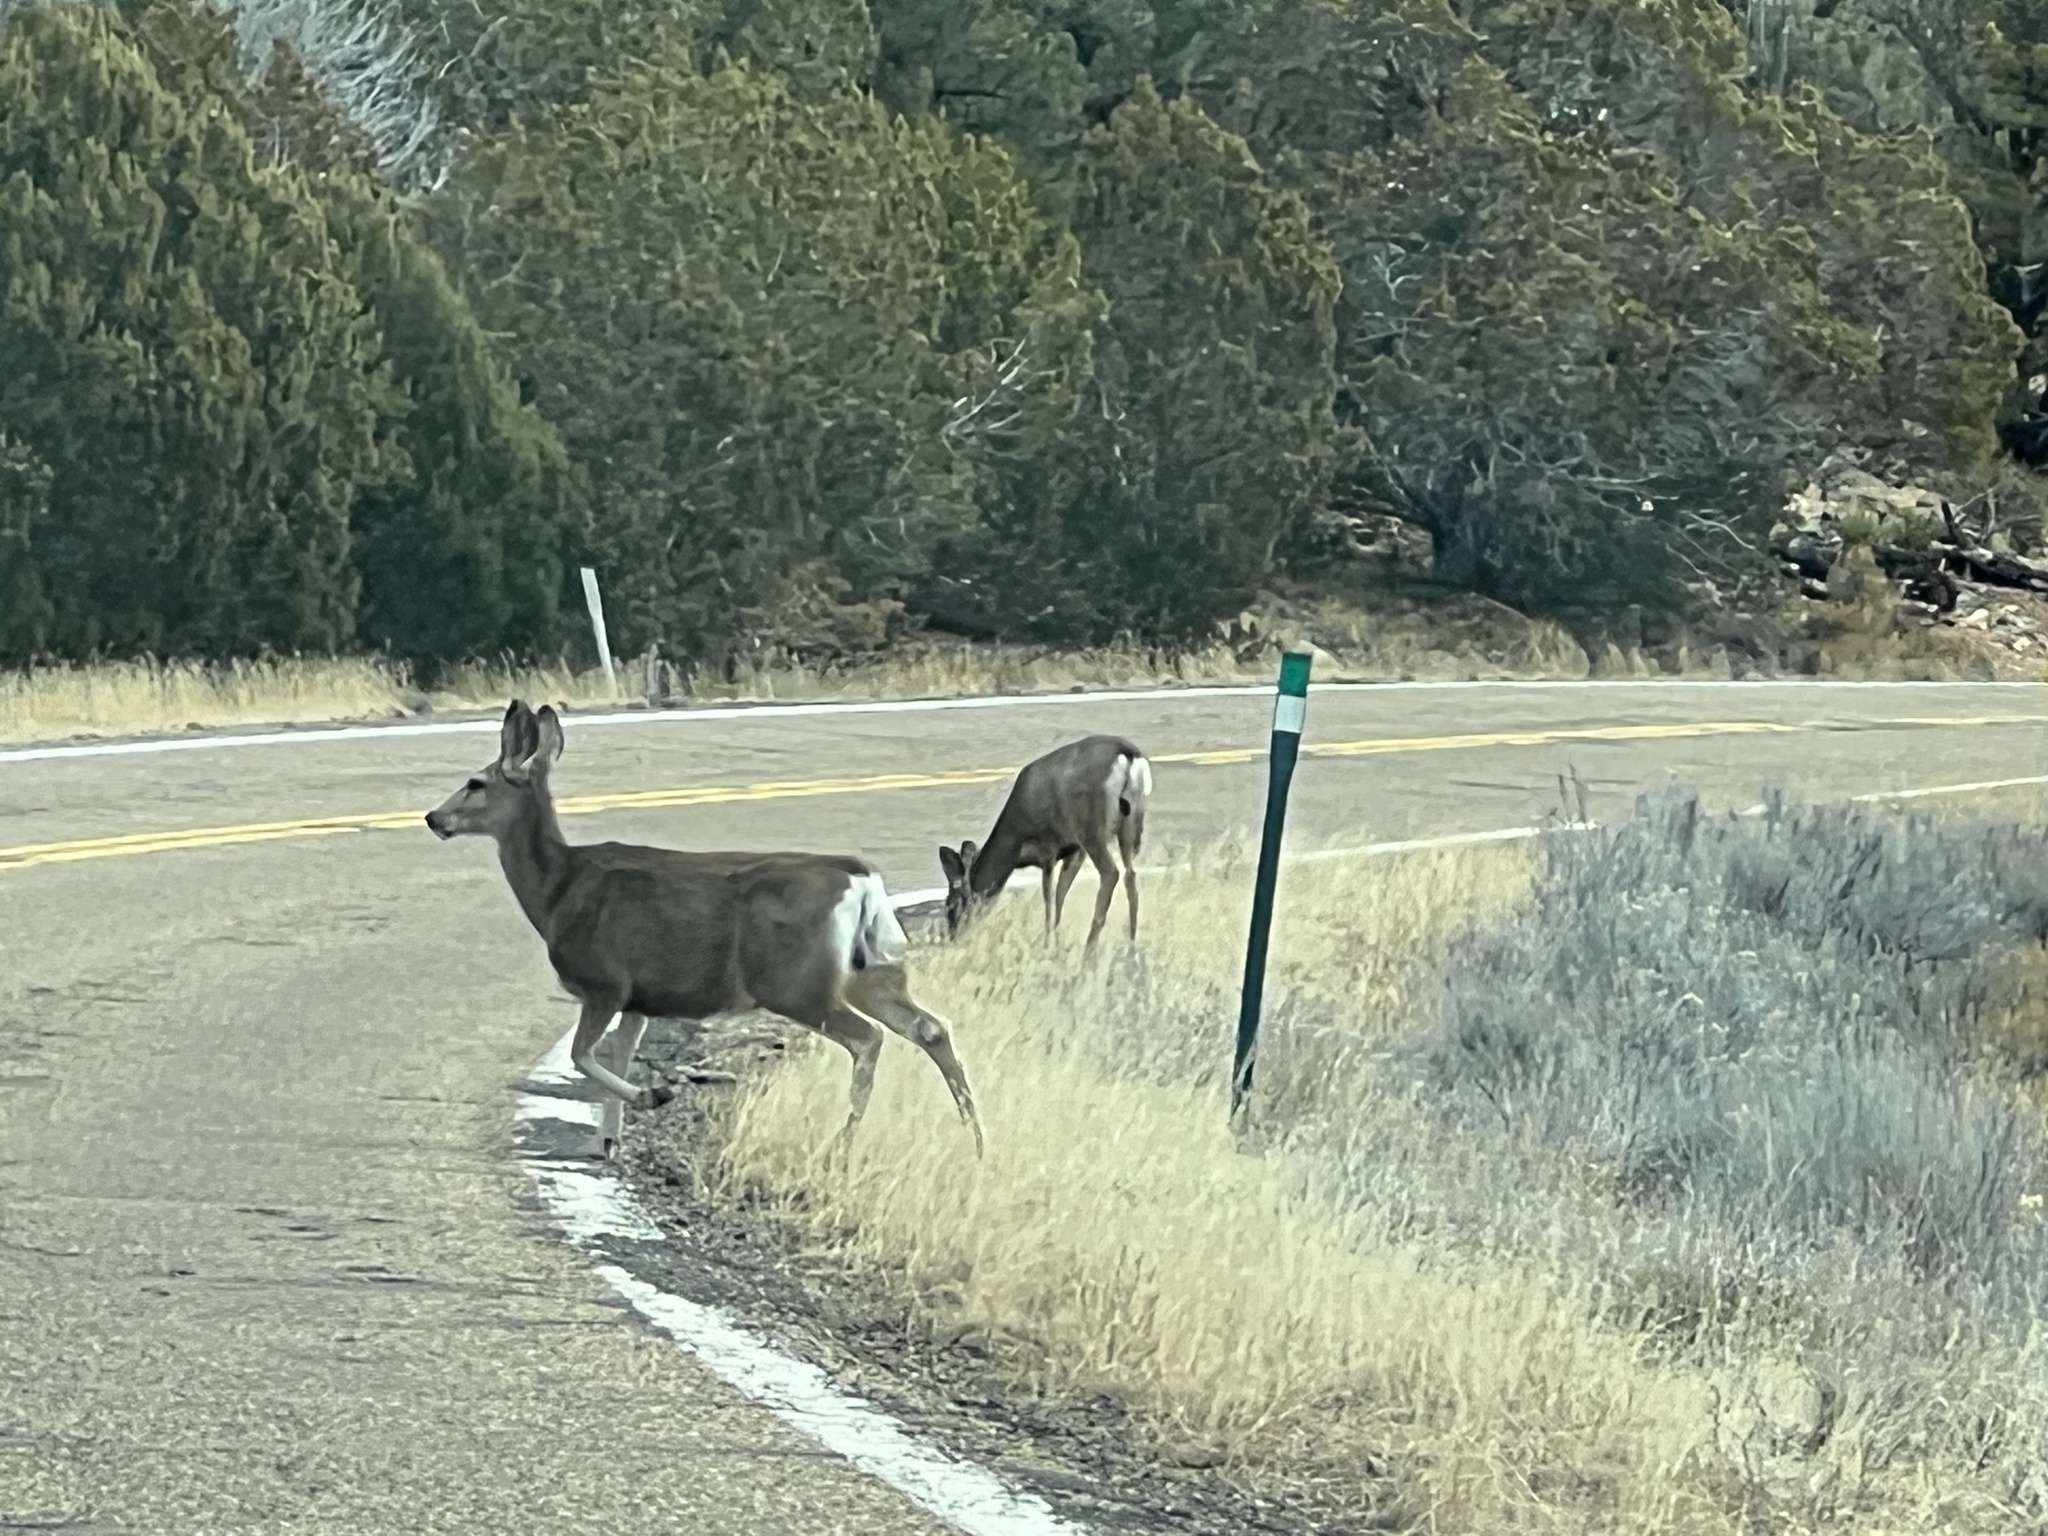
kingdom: Animalia
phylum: Chordata
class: Mammalia
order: Artiodactyla
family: Cervidae
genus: Odocoileus
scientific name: Odocoileus hemionus
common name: Mule deer
